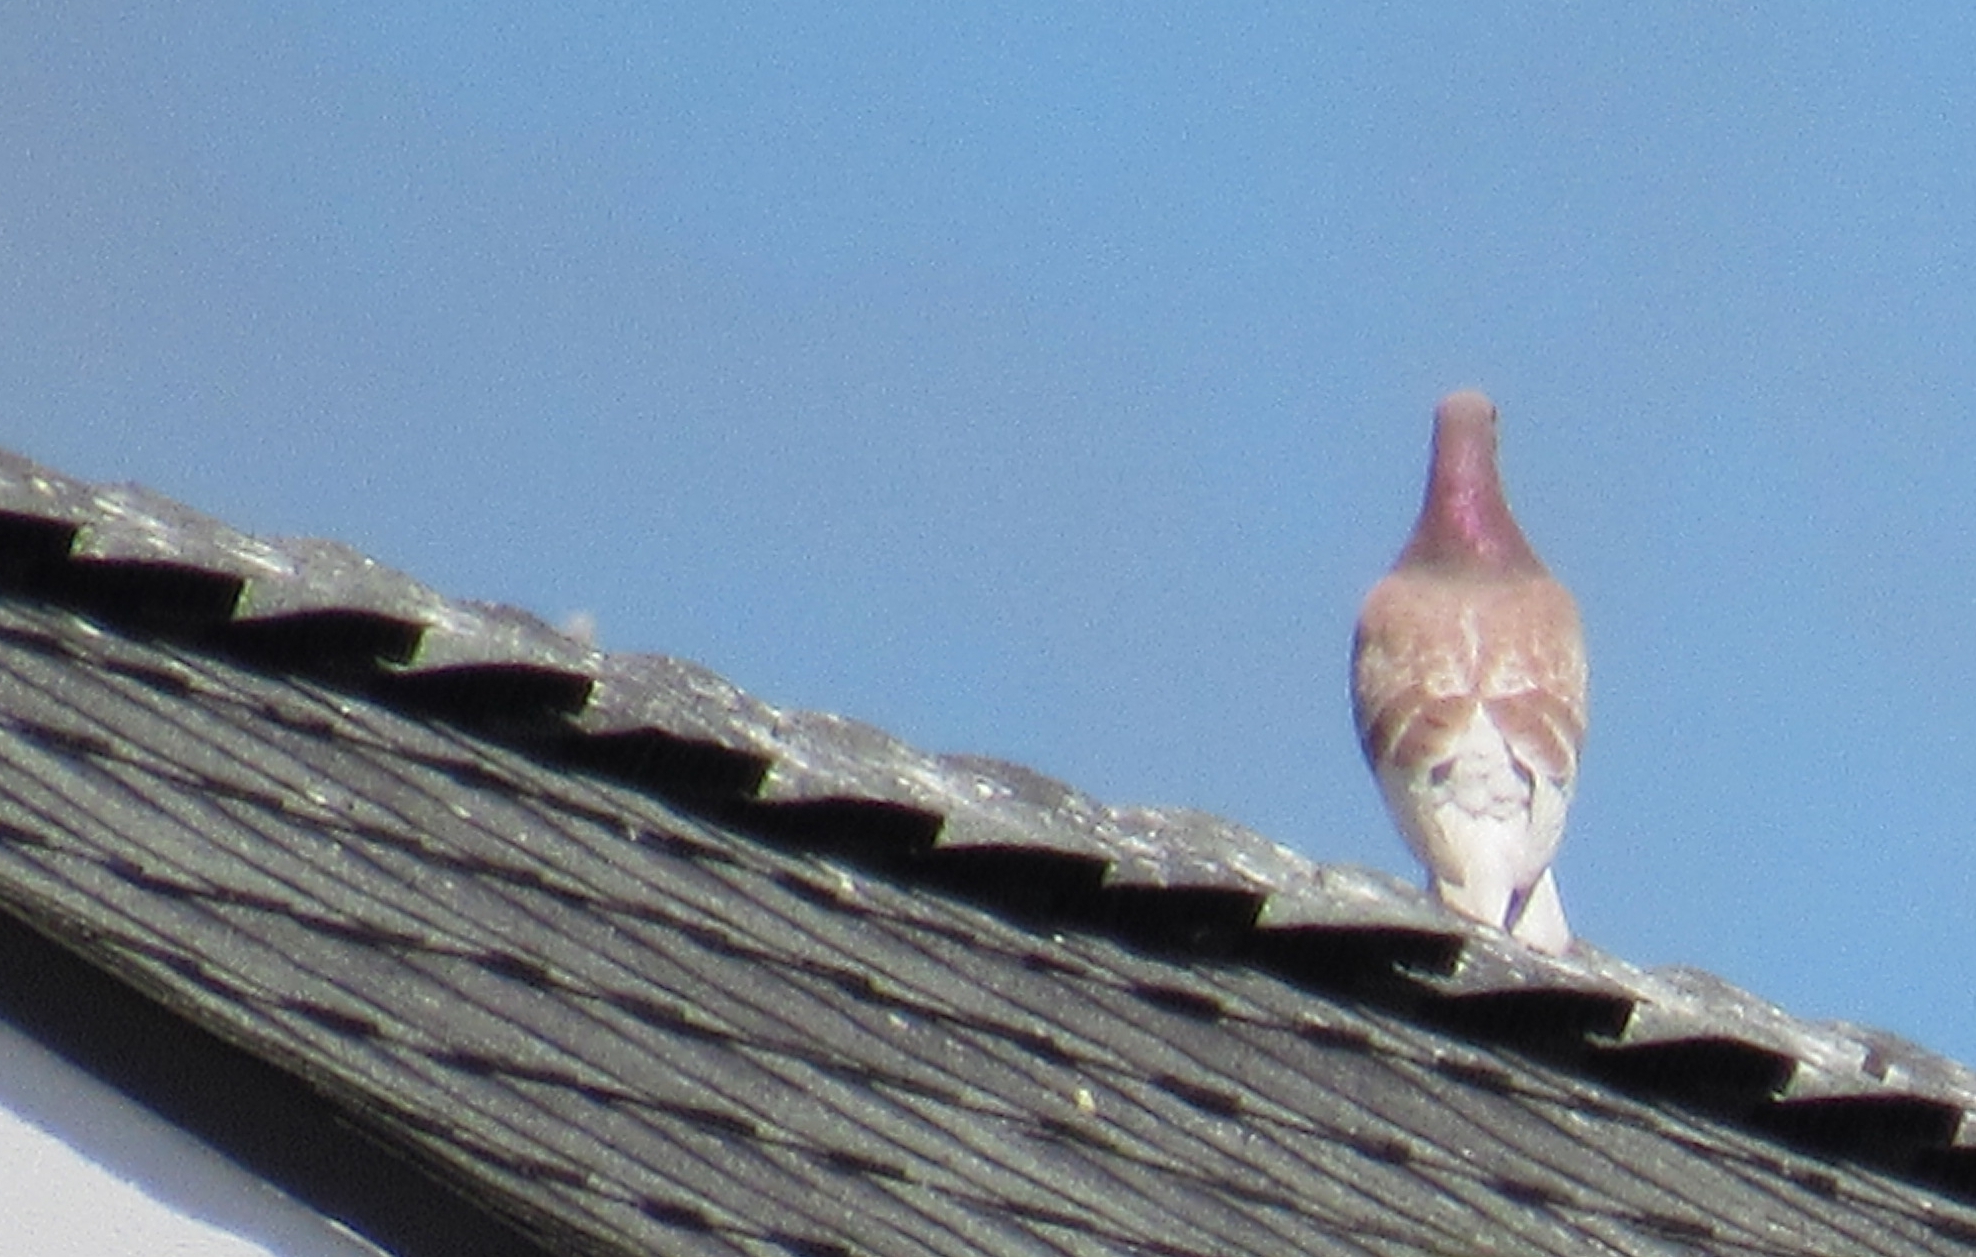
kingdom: Animalia
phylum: Chordata
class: Aves
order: Columbiformes
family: Columbidae
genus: Columba
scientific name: Columba livia
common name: Rock pigeon
